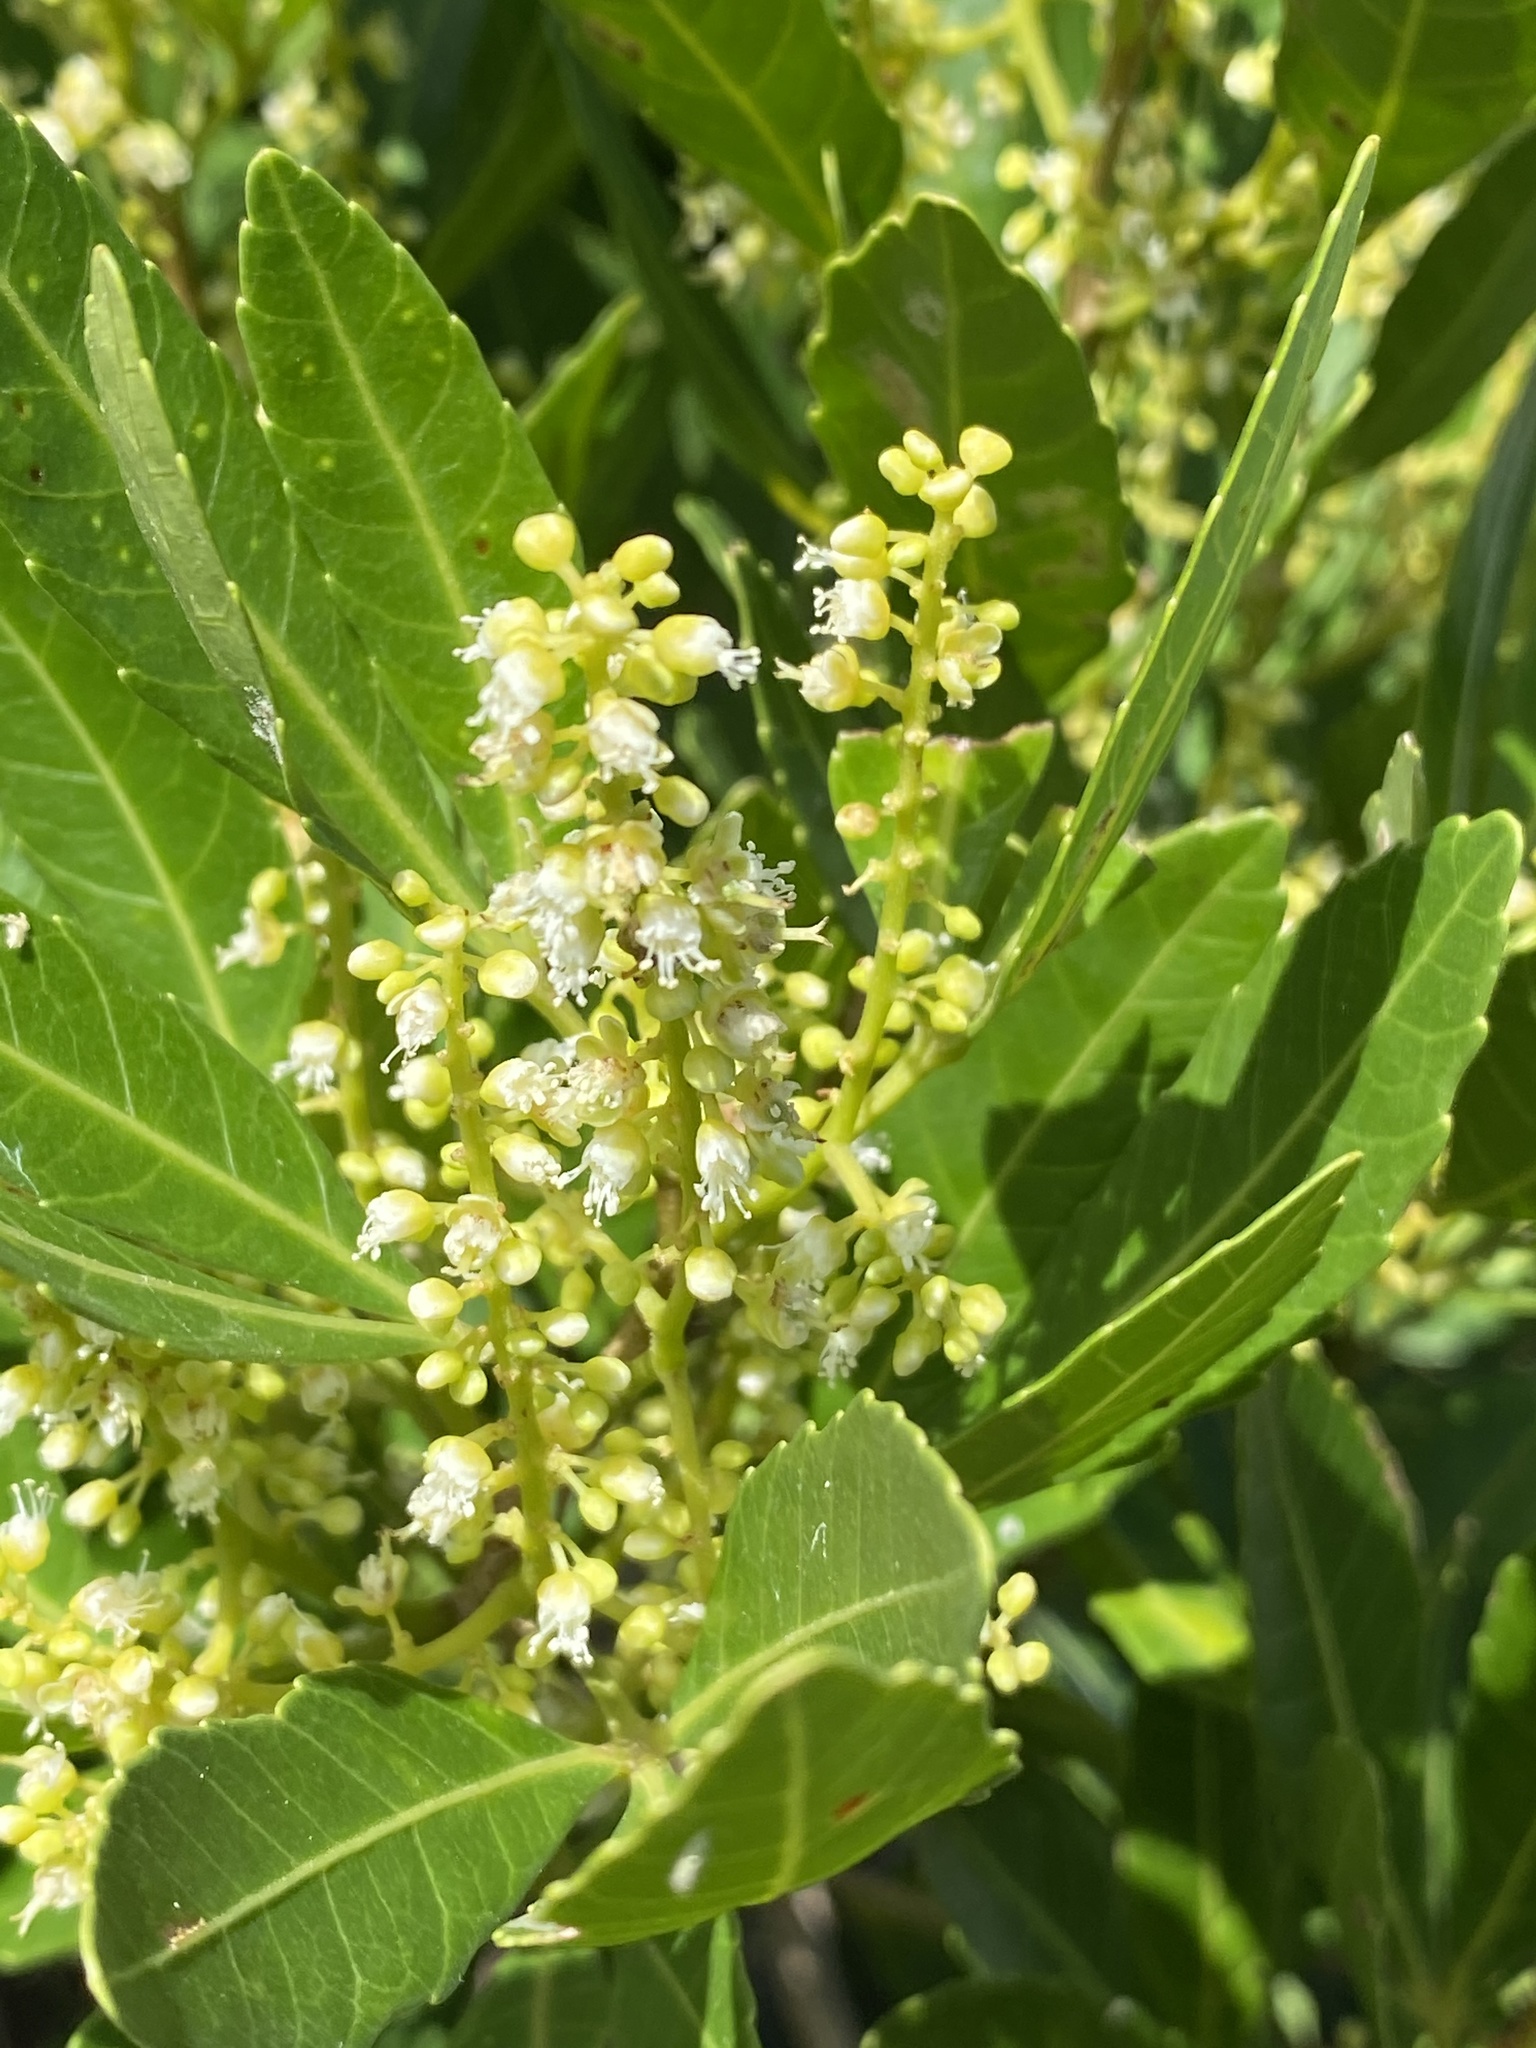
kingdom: Plantae
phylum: Tracheophyta
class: Magnoliopsida
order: Sapindales
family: Sapindaceae
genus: Allophylus
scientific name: Allophylus natalensis
